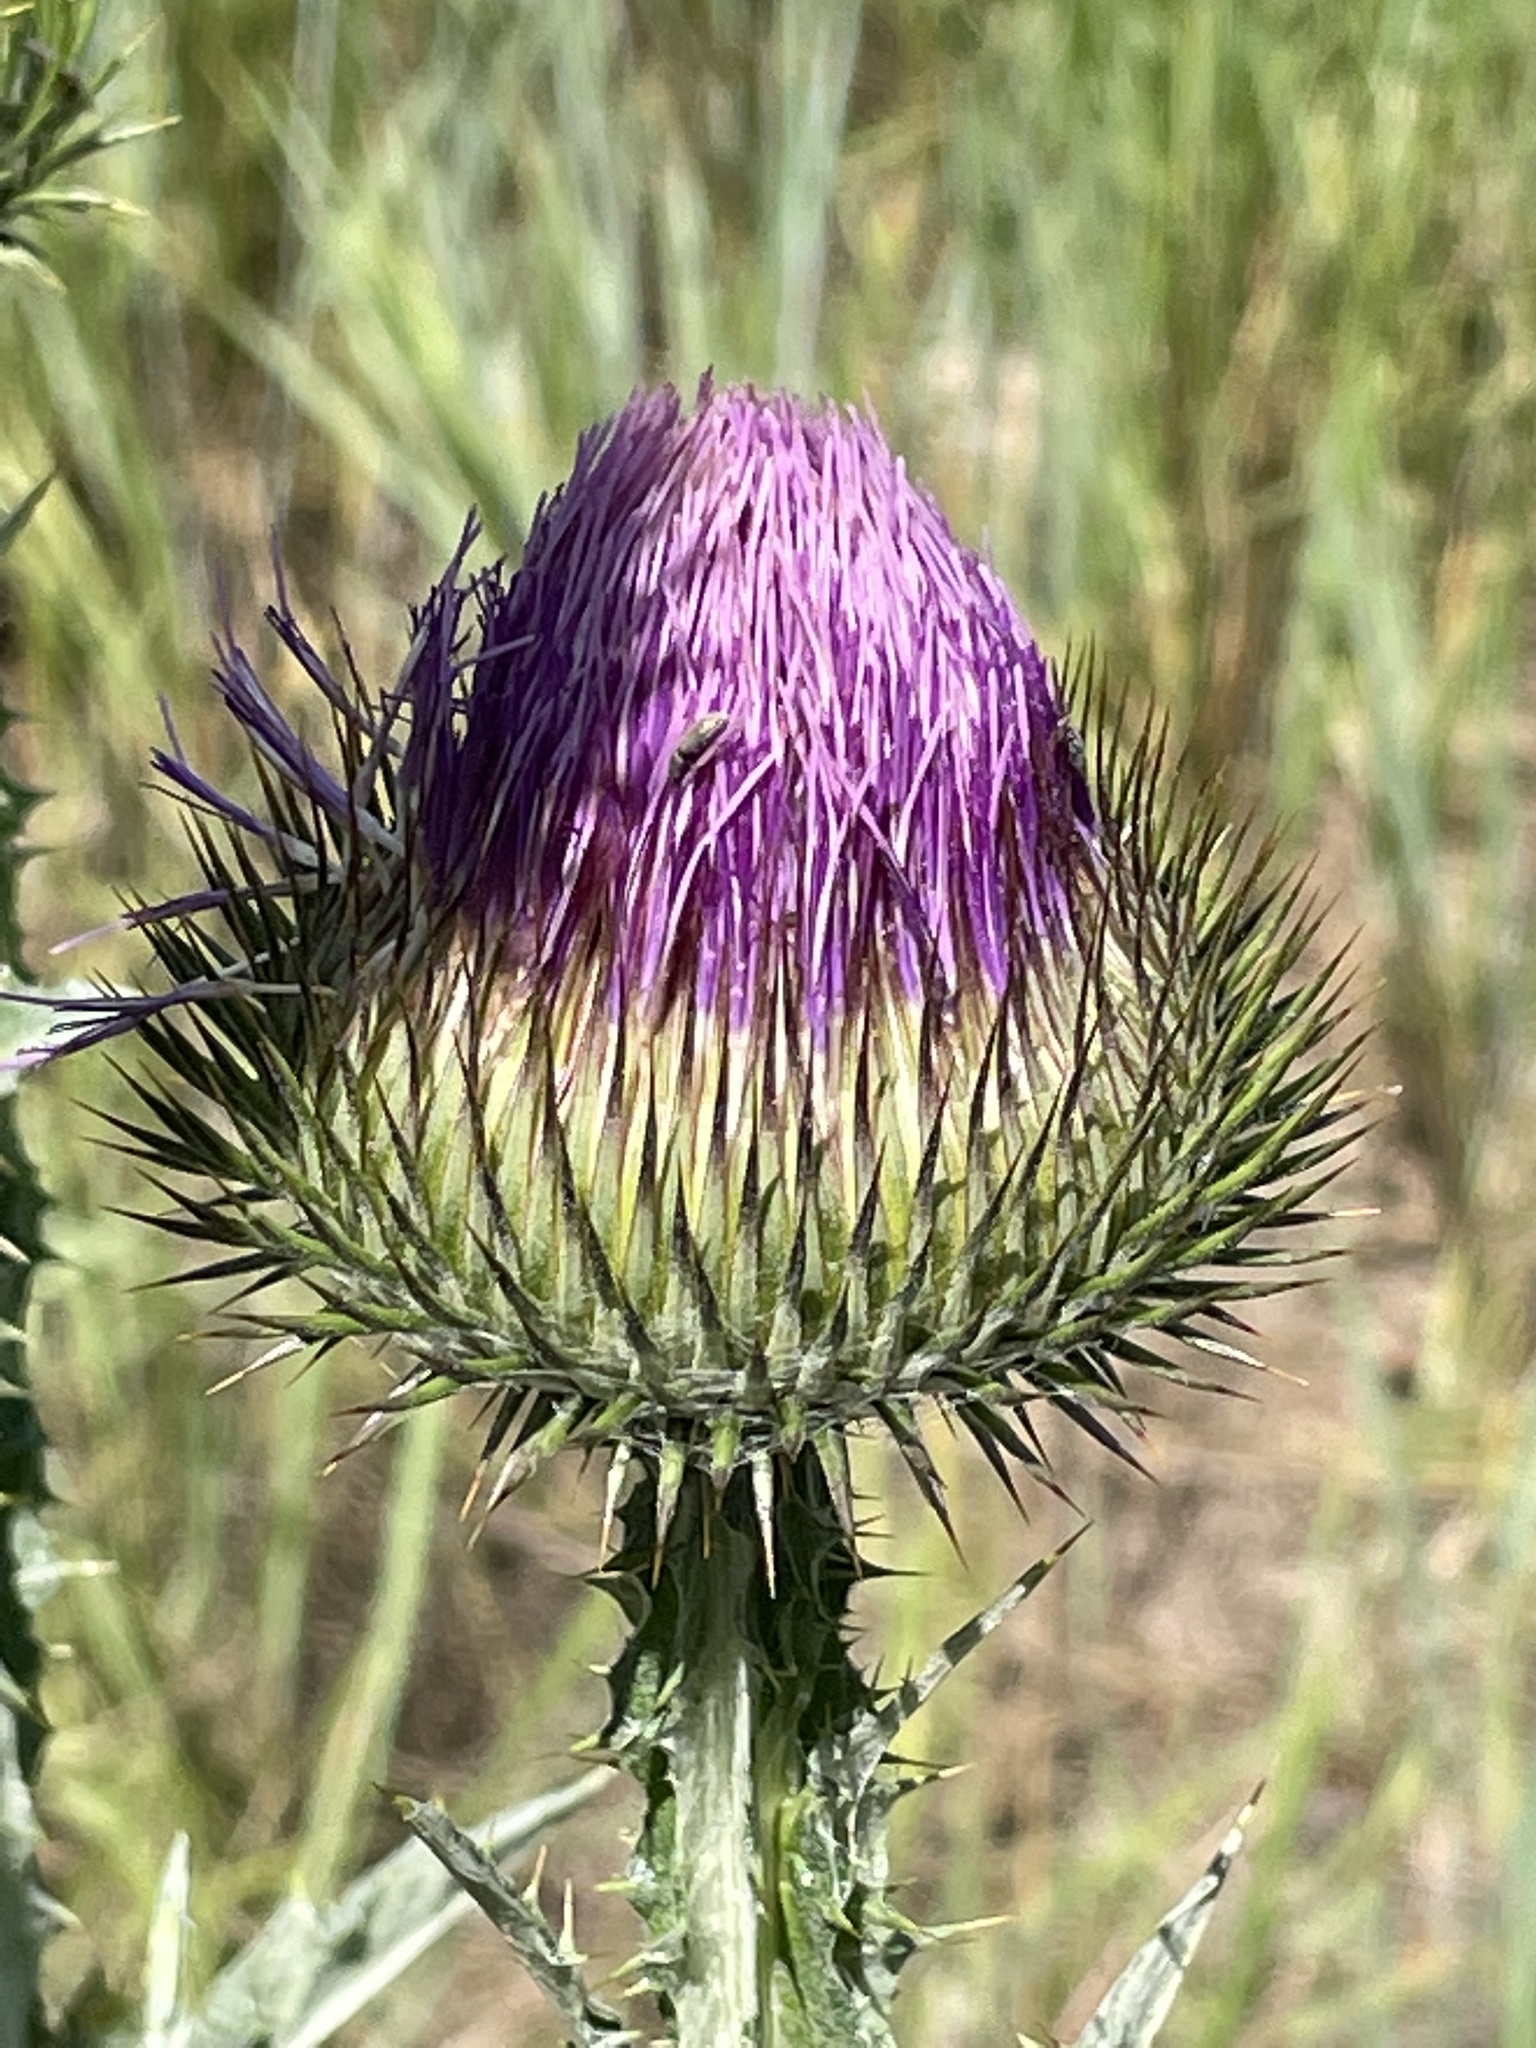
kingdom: Plantae
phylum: Tracheophyta
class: Magnoliopsida
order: Asterales
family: Asteraceae
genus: Onopordum
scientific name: Onopordum acanthium
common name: Scotch thistle
